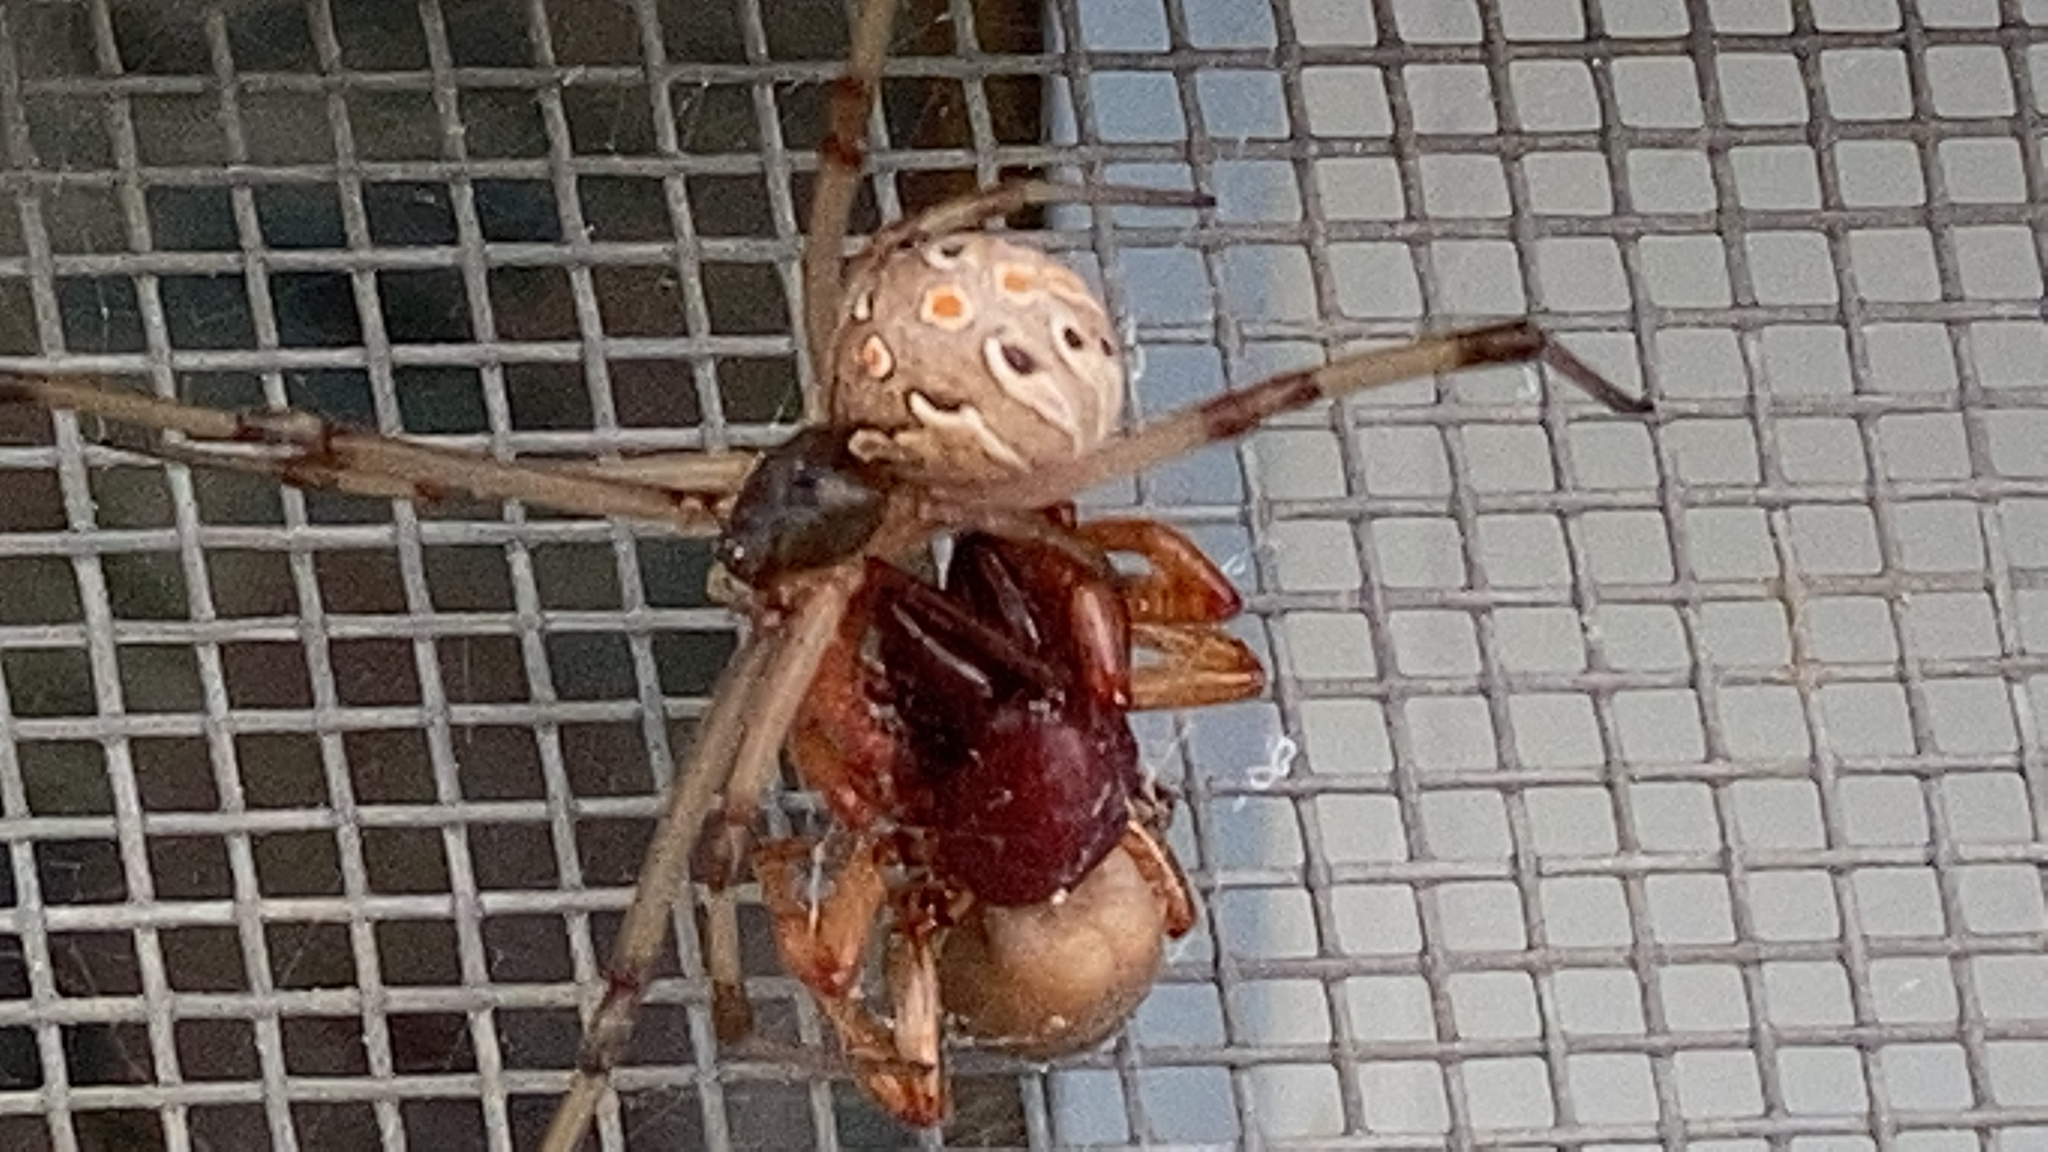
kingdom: Animalia
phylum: Arthropoda
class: Arachnida
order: Araneae
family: Theridiidae
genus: Latrodectus
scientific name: Latrodectus geometricus
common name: Brown widow spider
